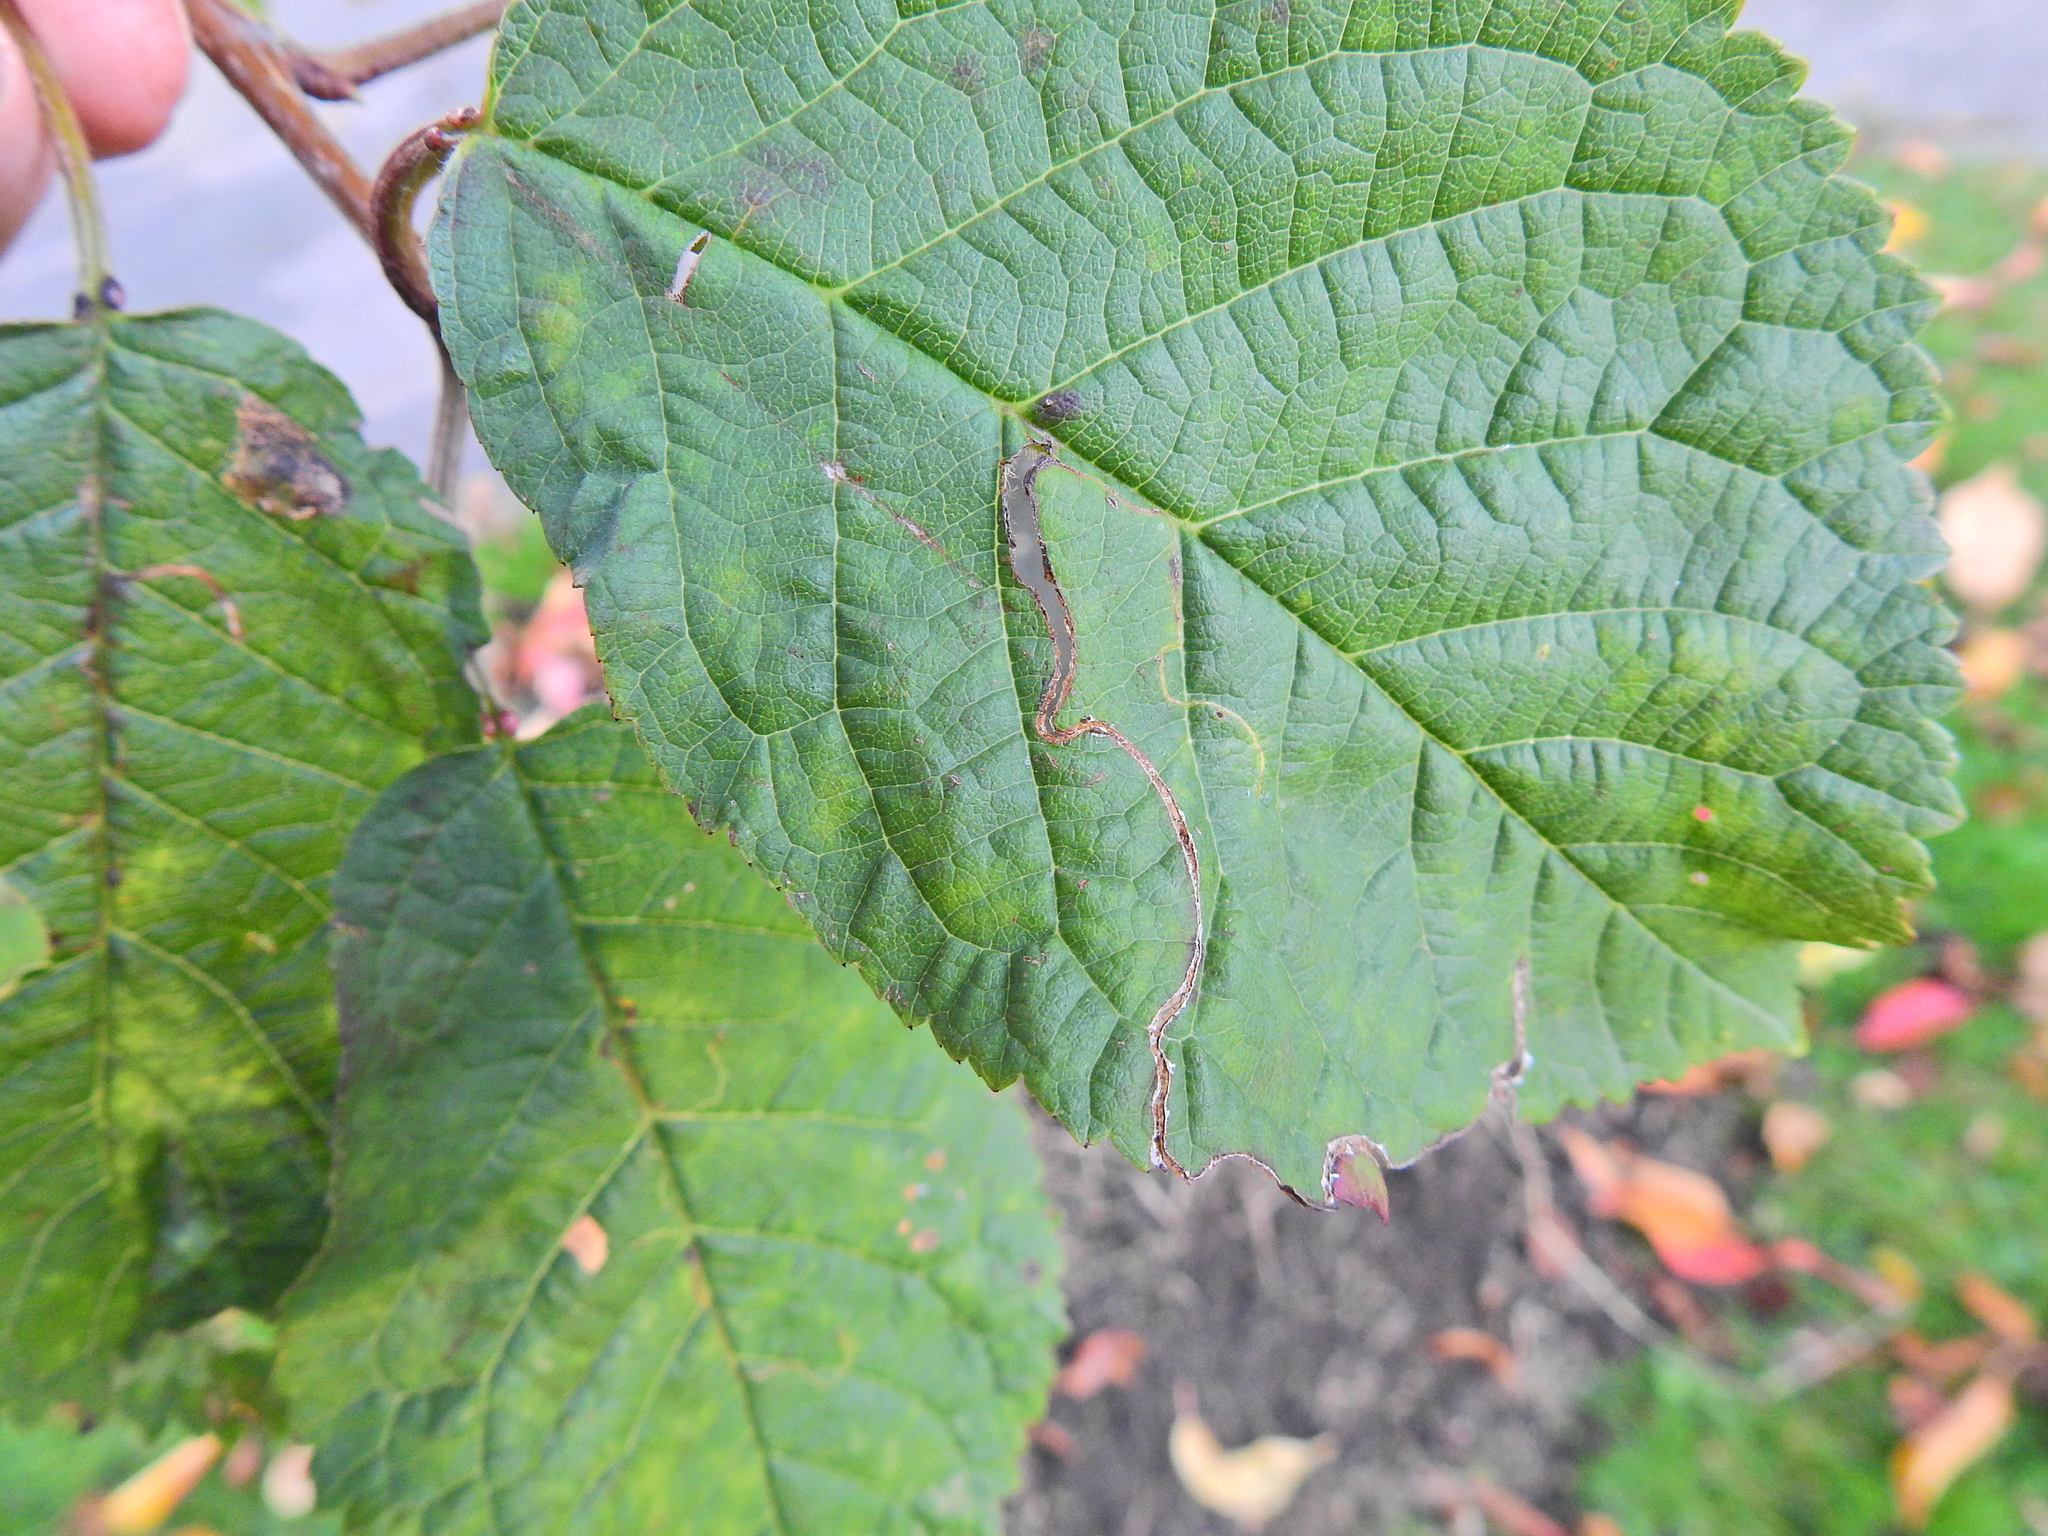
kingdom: Animalia
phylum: Arthropoda
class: Insecta
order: Lepidoptera
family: Lyonetiidae
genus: Lyonetia
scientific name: Lyonetia clerkella
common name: Apple leaf miner
